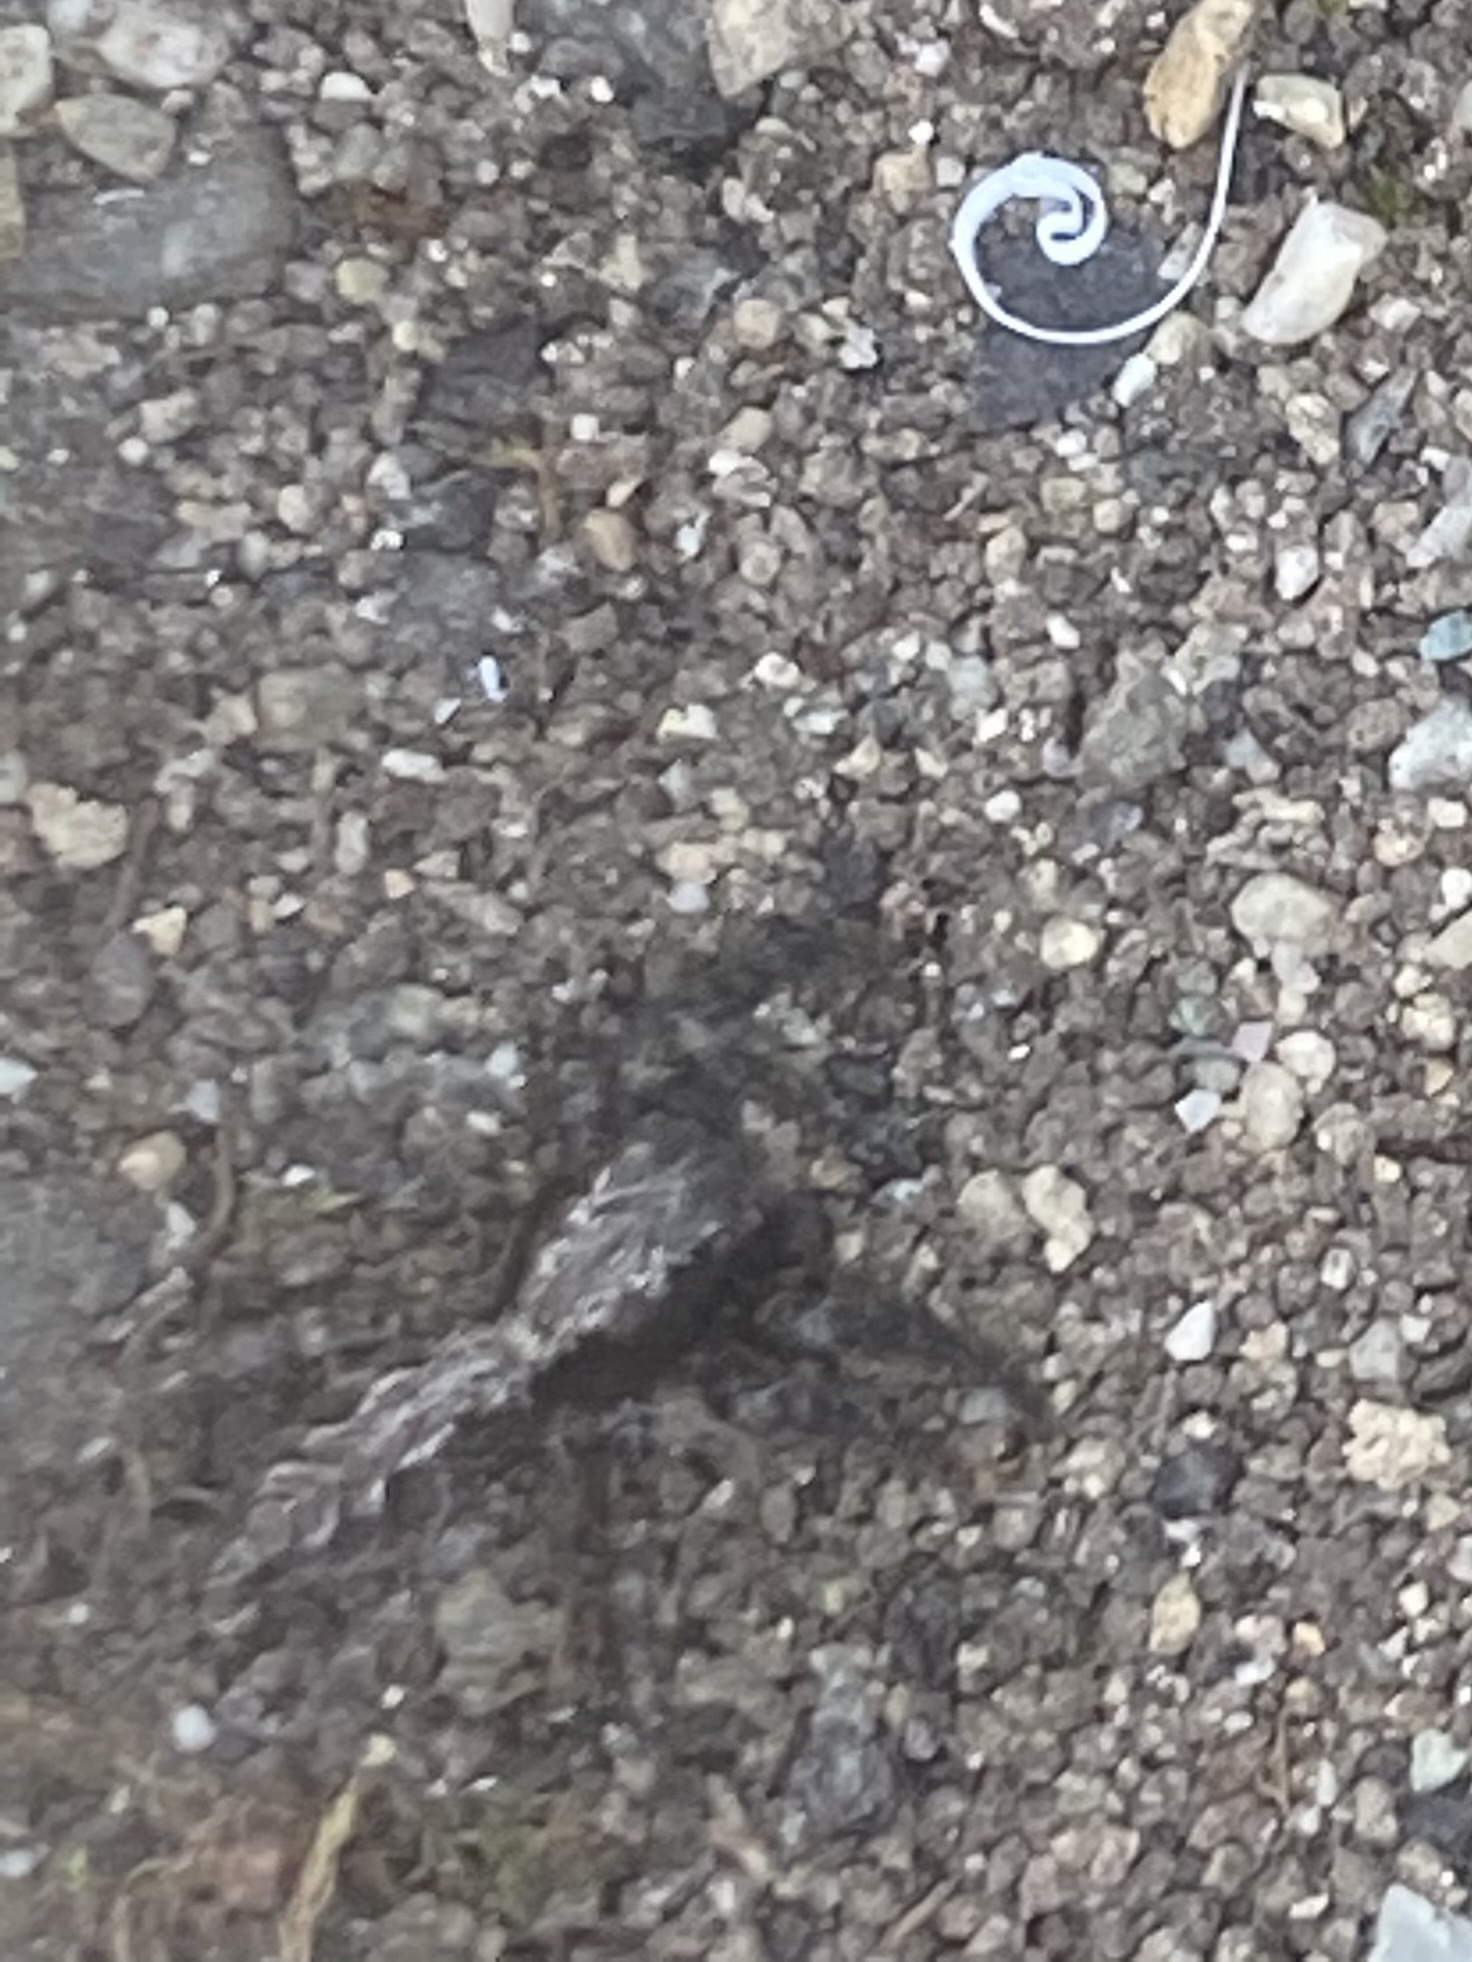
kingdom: Animalia
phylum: Arthropoda
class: Arachnida
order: Araneae
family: Salticidae
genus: Platycryptus
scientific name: Platycryptus californicus
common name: Jumping spiders
